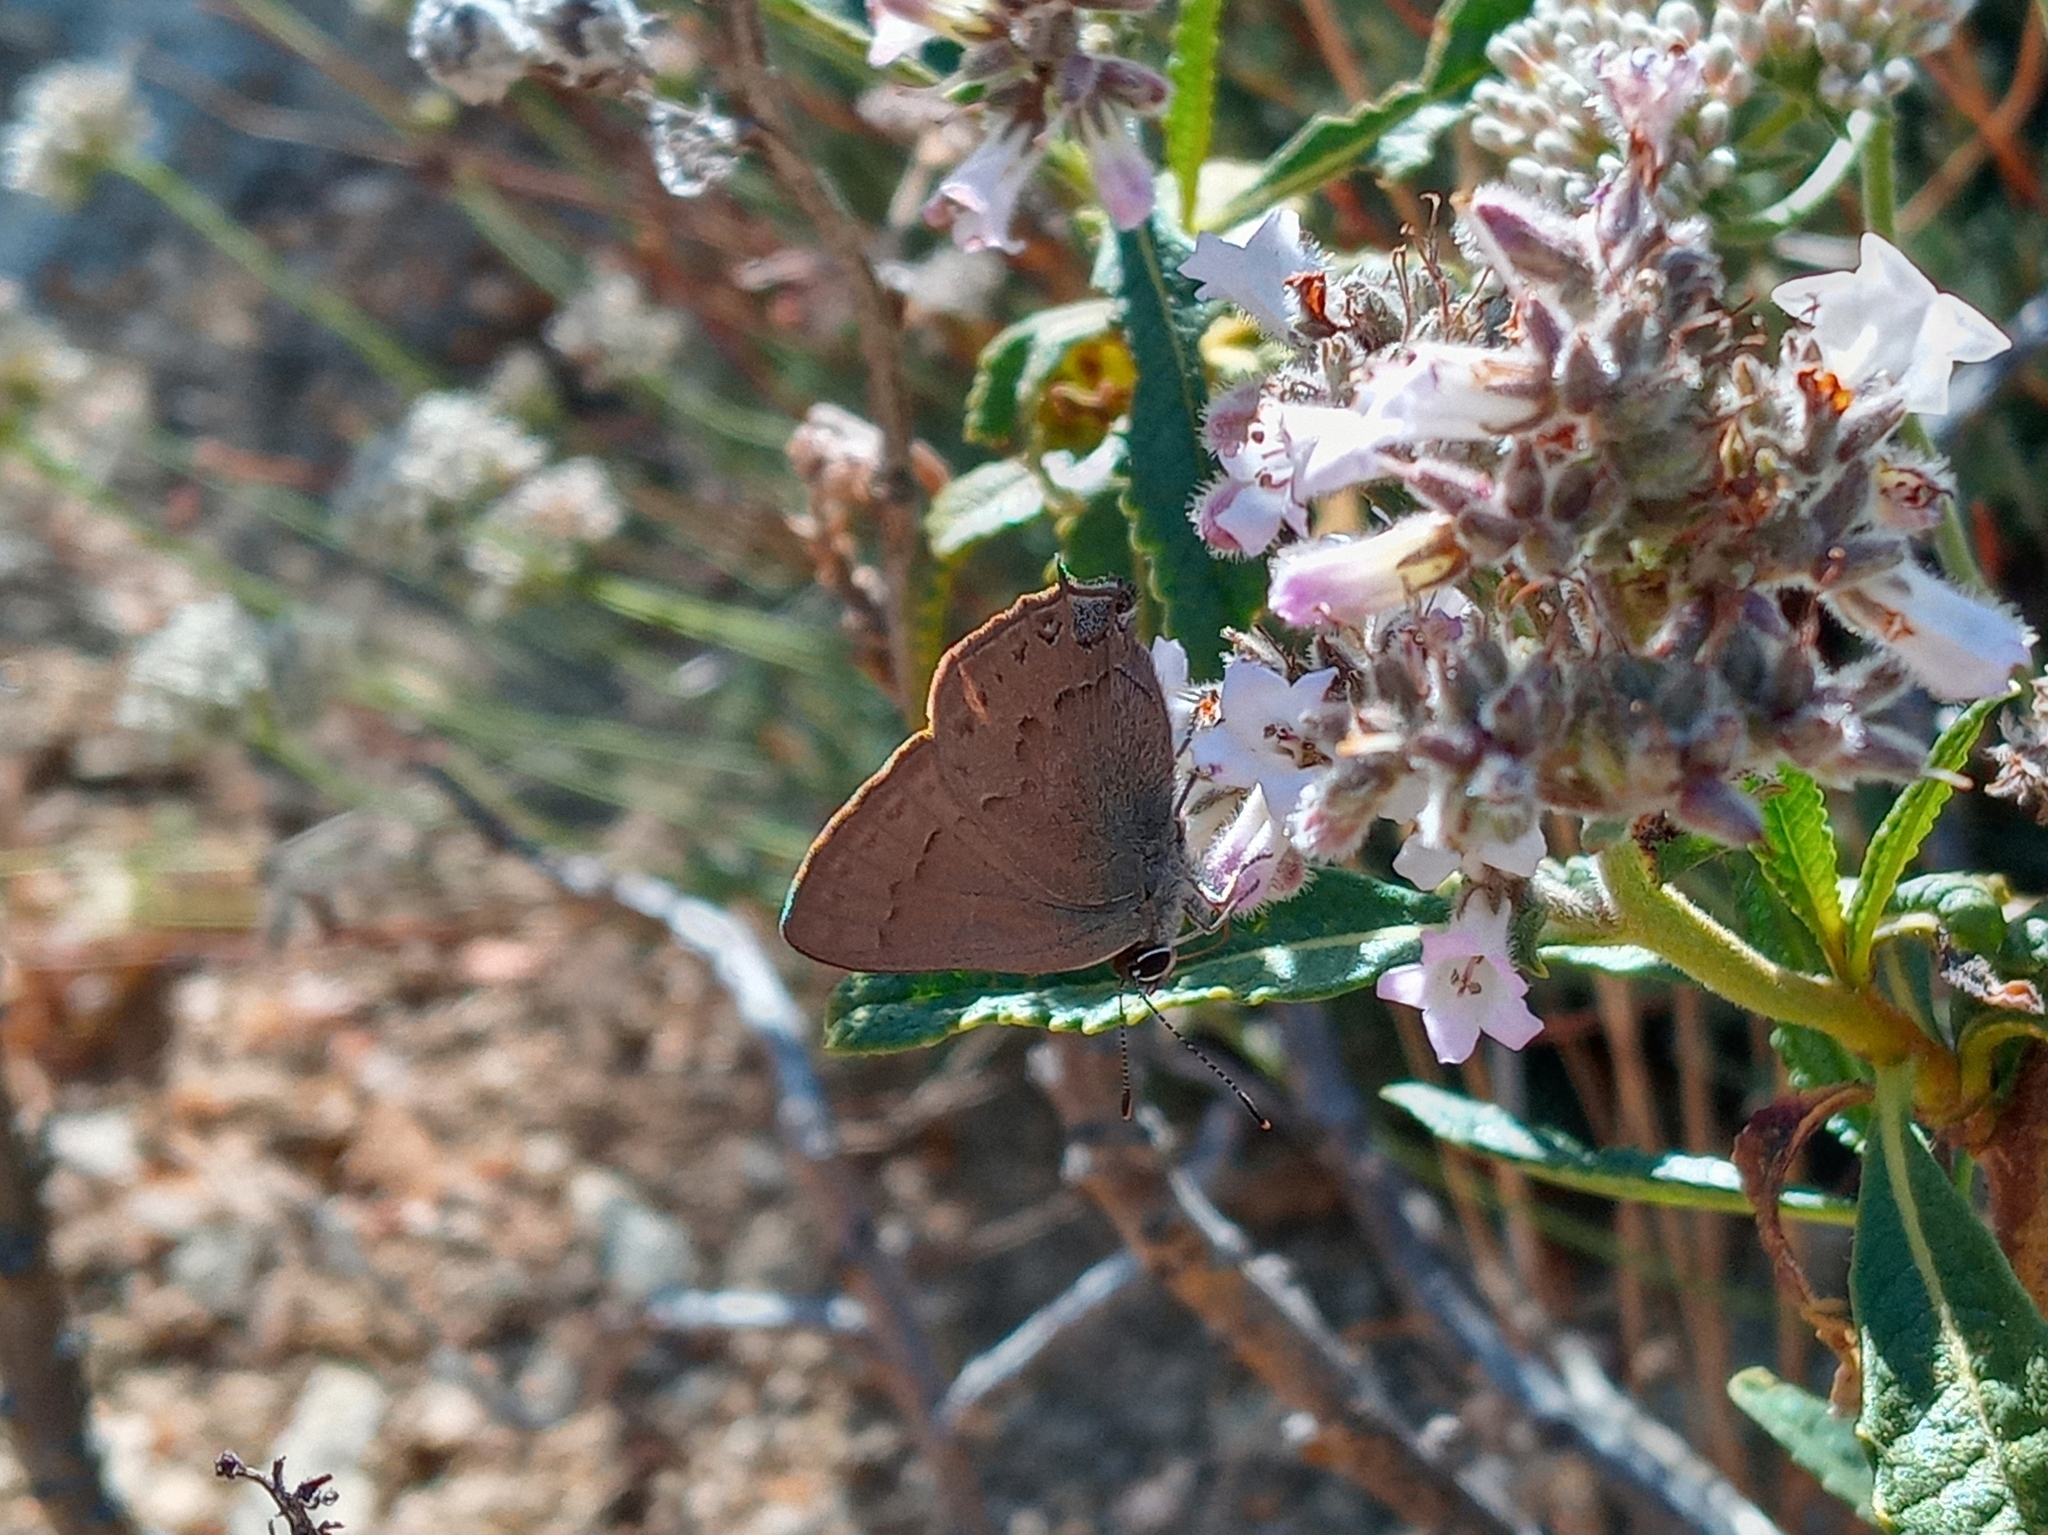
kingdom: Animalia
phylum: Arthropoda
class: Insecta
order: Lepidoptera
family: Lycaenidae
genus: Strymon
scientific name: Strymon saepium
